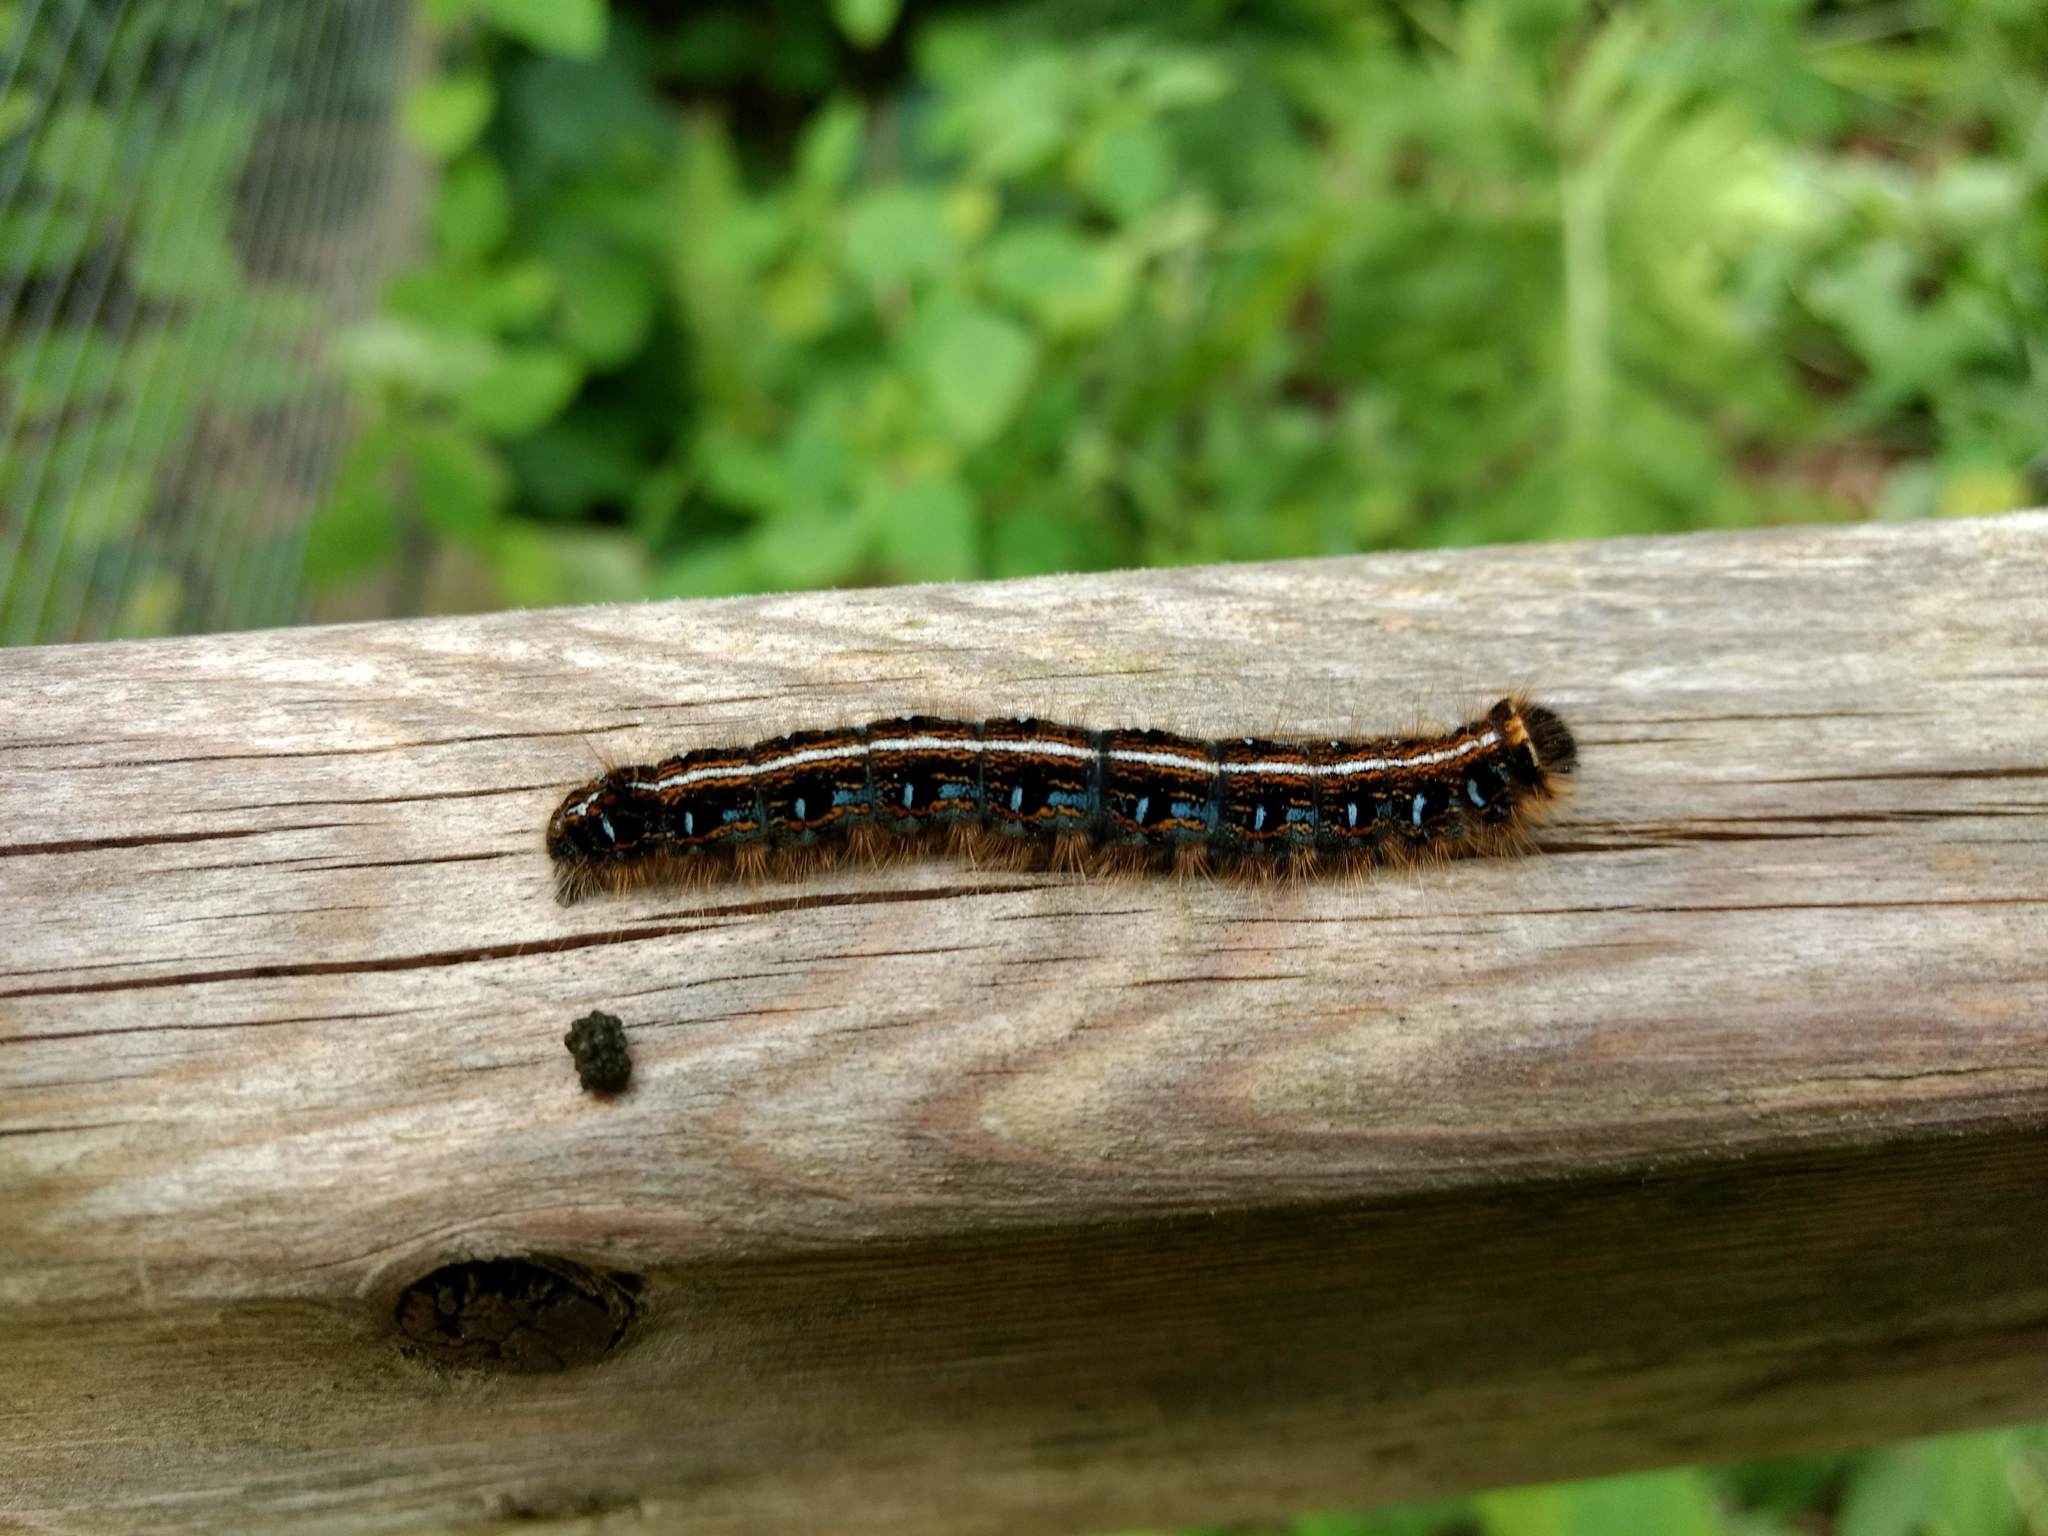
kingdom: Animalia
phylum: Arthropoda
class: Insecta
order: Lepidoptera
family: Lasiocampidae
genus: Malacosoma
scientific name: Malacosoma americana
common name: Eastern tent caterpillar moth
